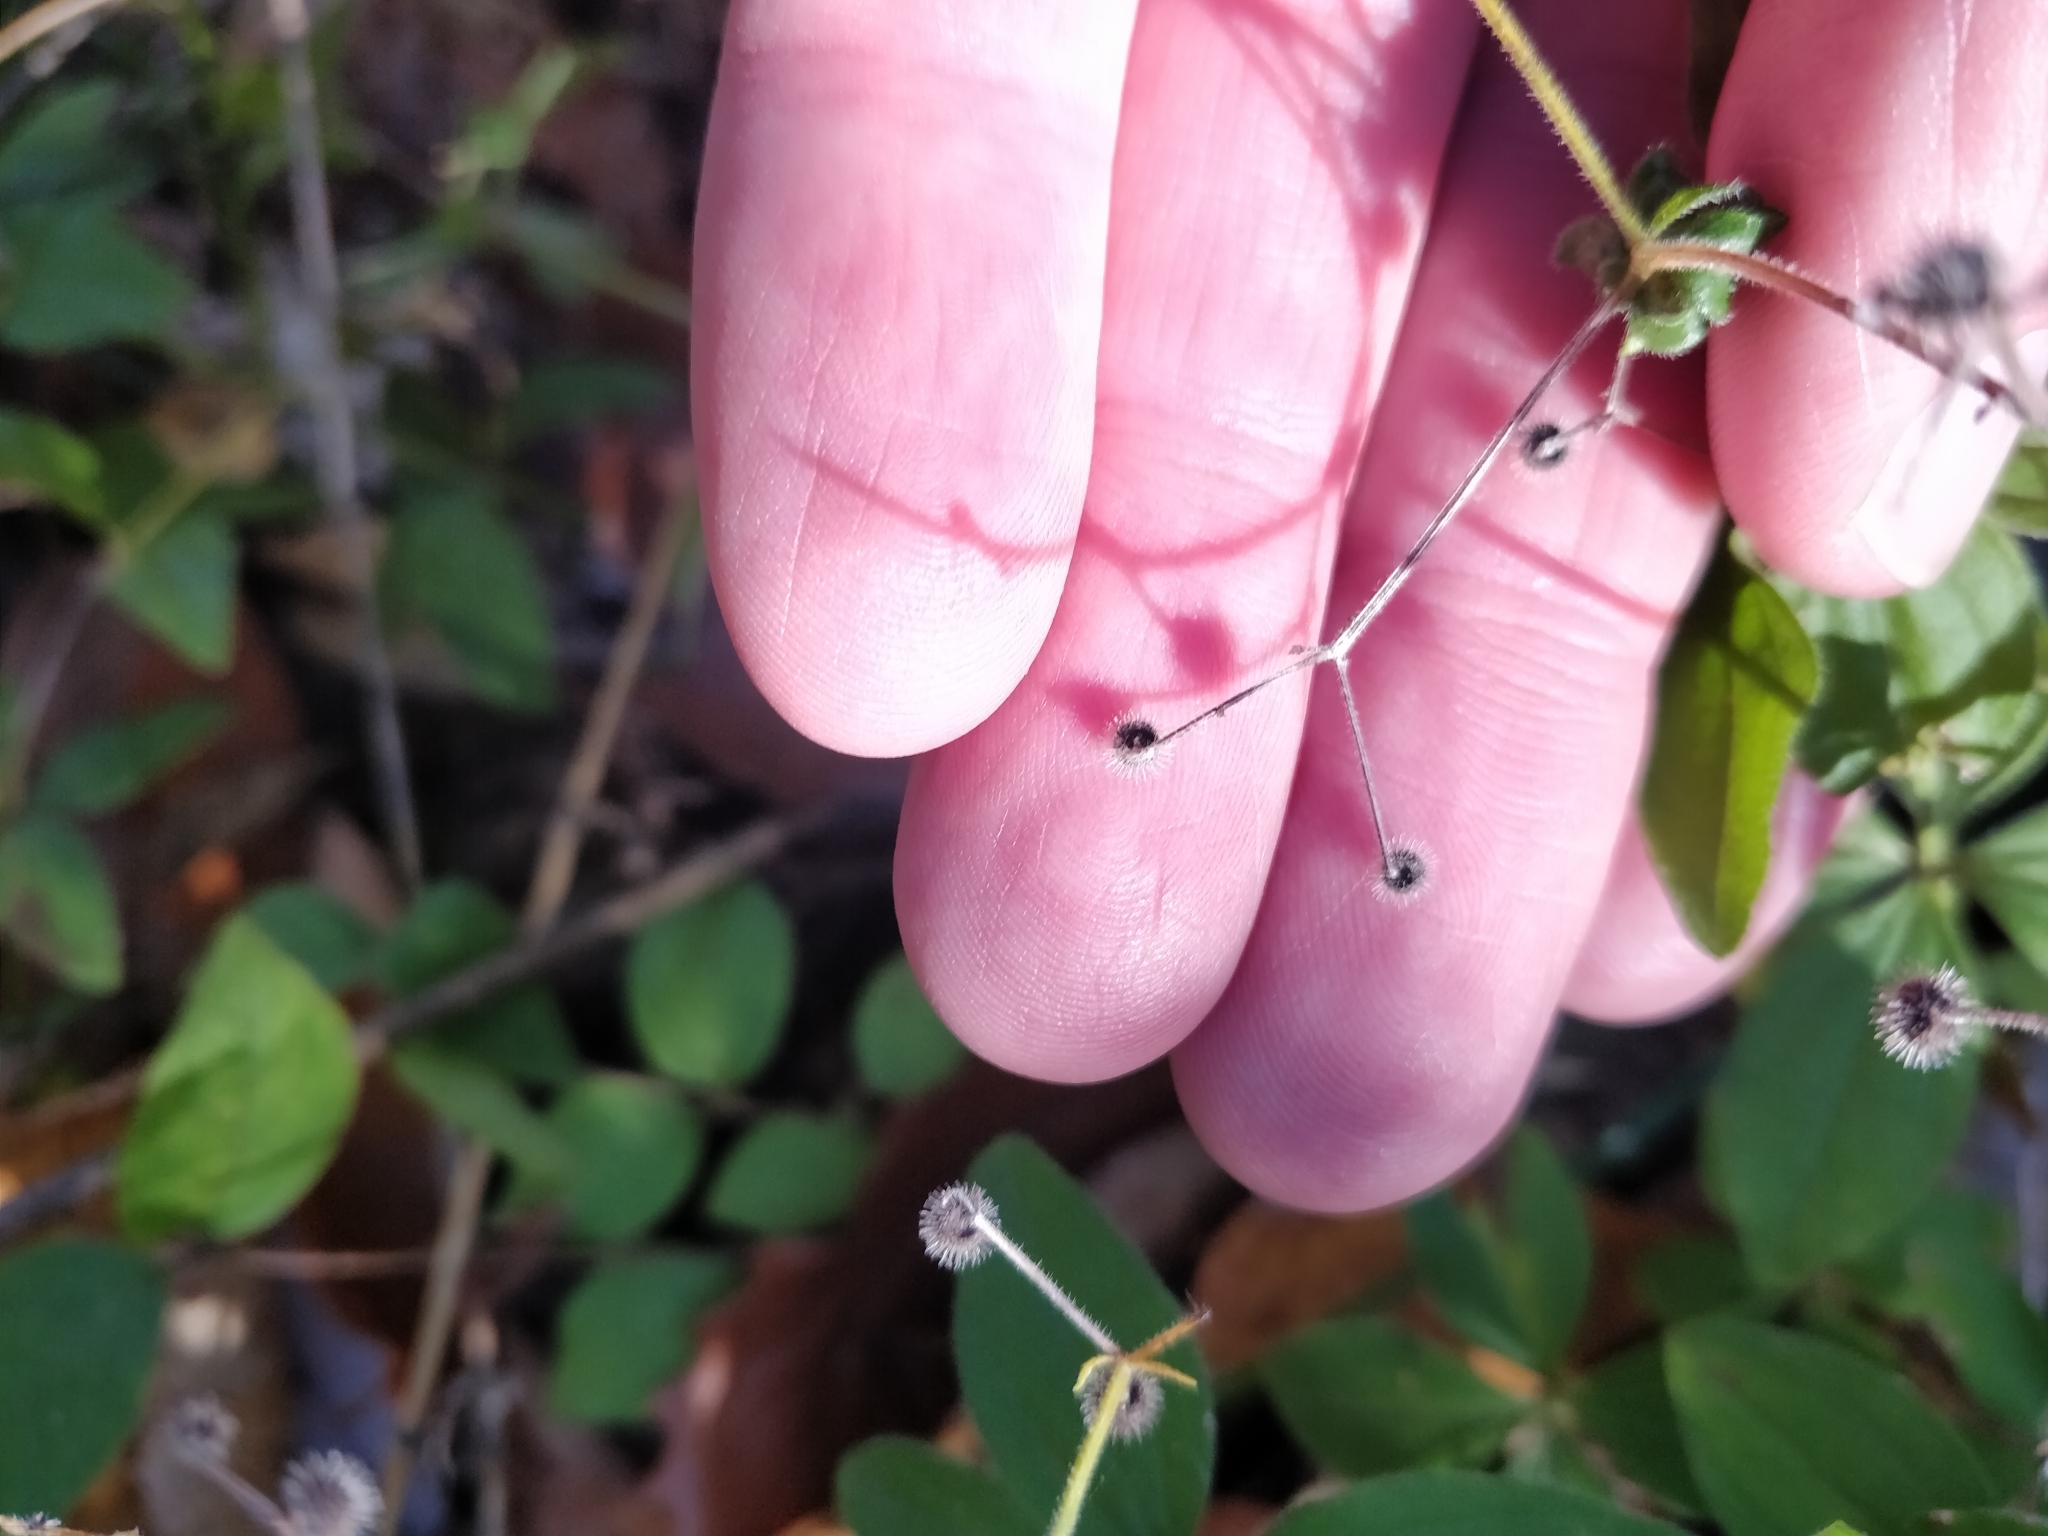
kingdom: Plantae
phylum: Tracheophyta
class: Magnoliopsida
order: Gentianales
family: Rubiaceae
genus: Galium
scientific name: Galium circaezans
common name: Forest bedstraw
